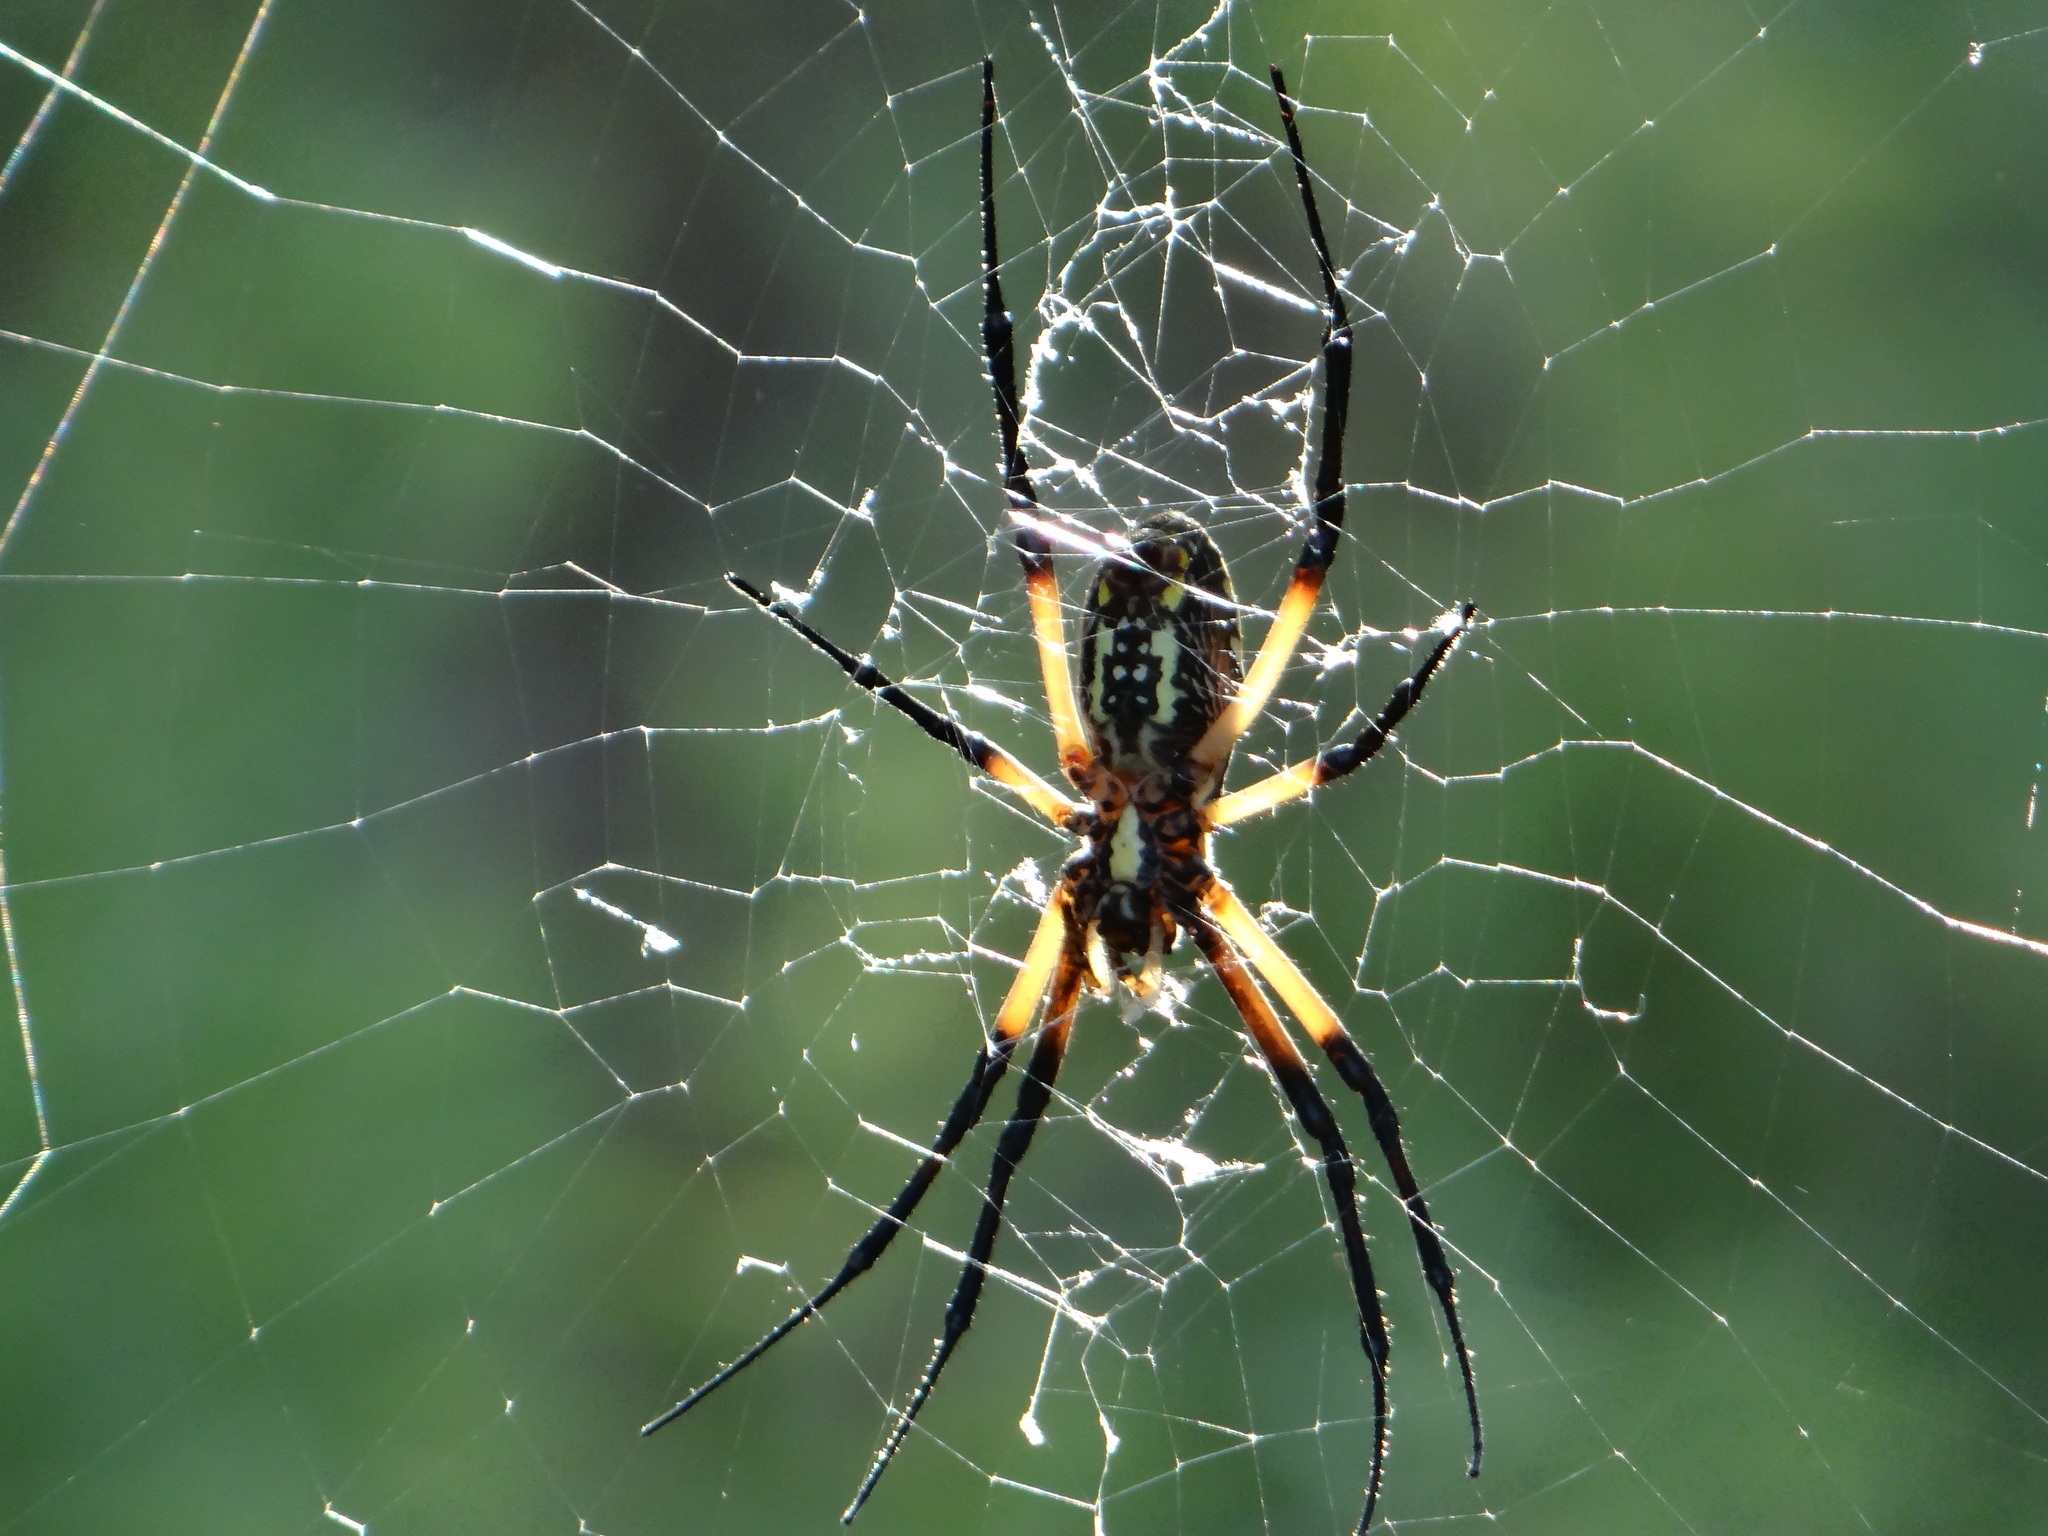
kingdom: Animalia
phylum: Arthropoda
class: Arachnida
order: Araneae
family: Araneidae
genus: Argiope
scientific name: Argiope aurantia
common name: Orb weavers
